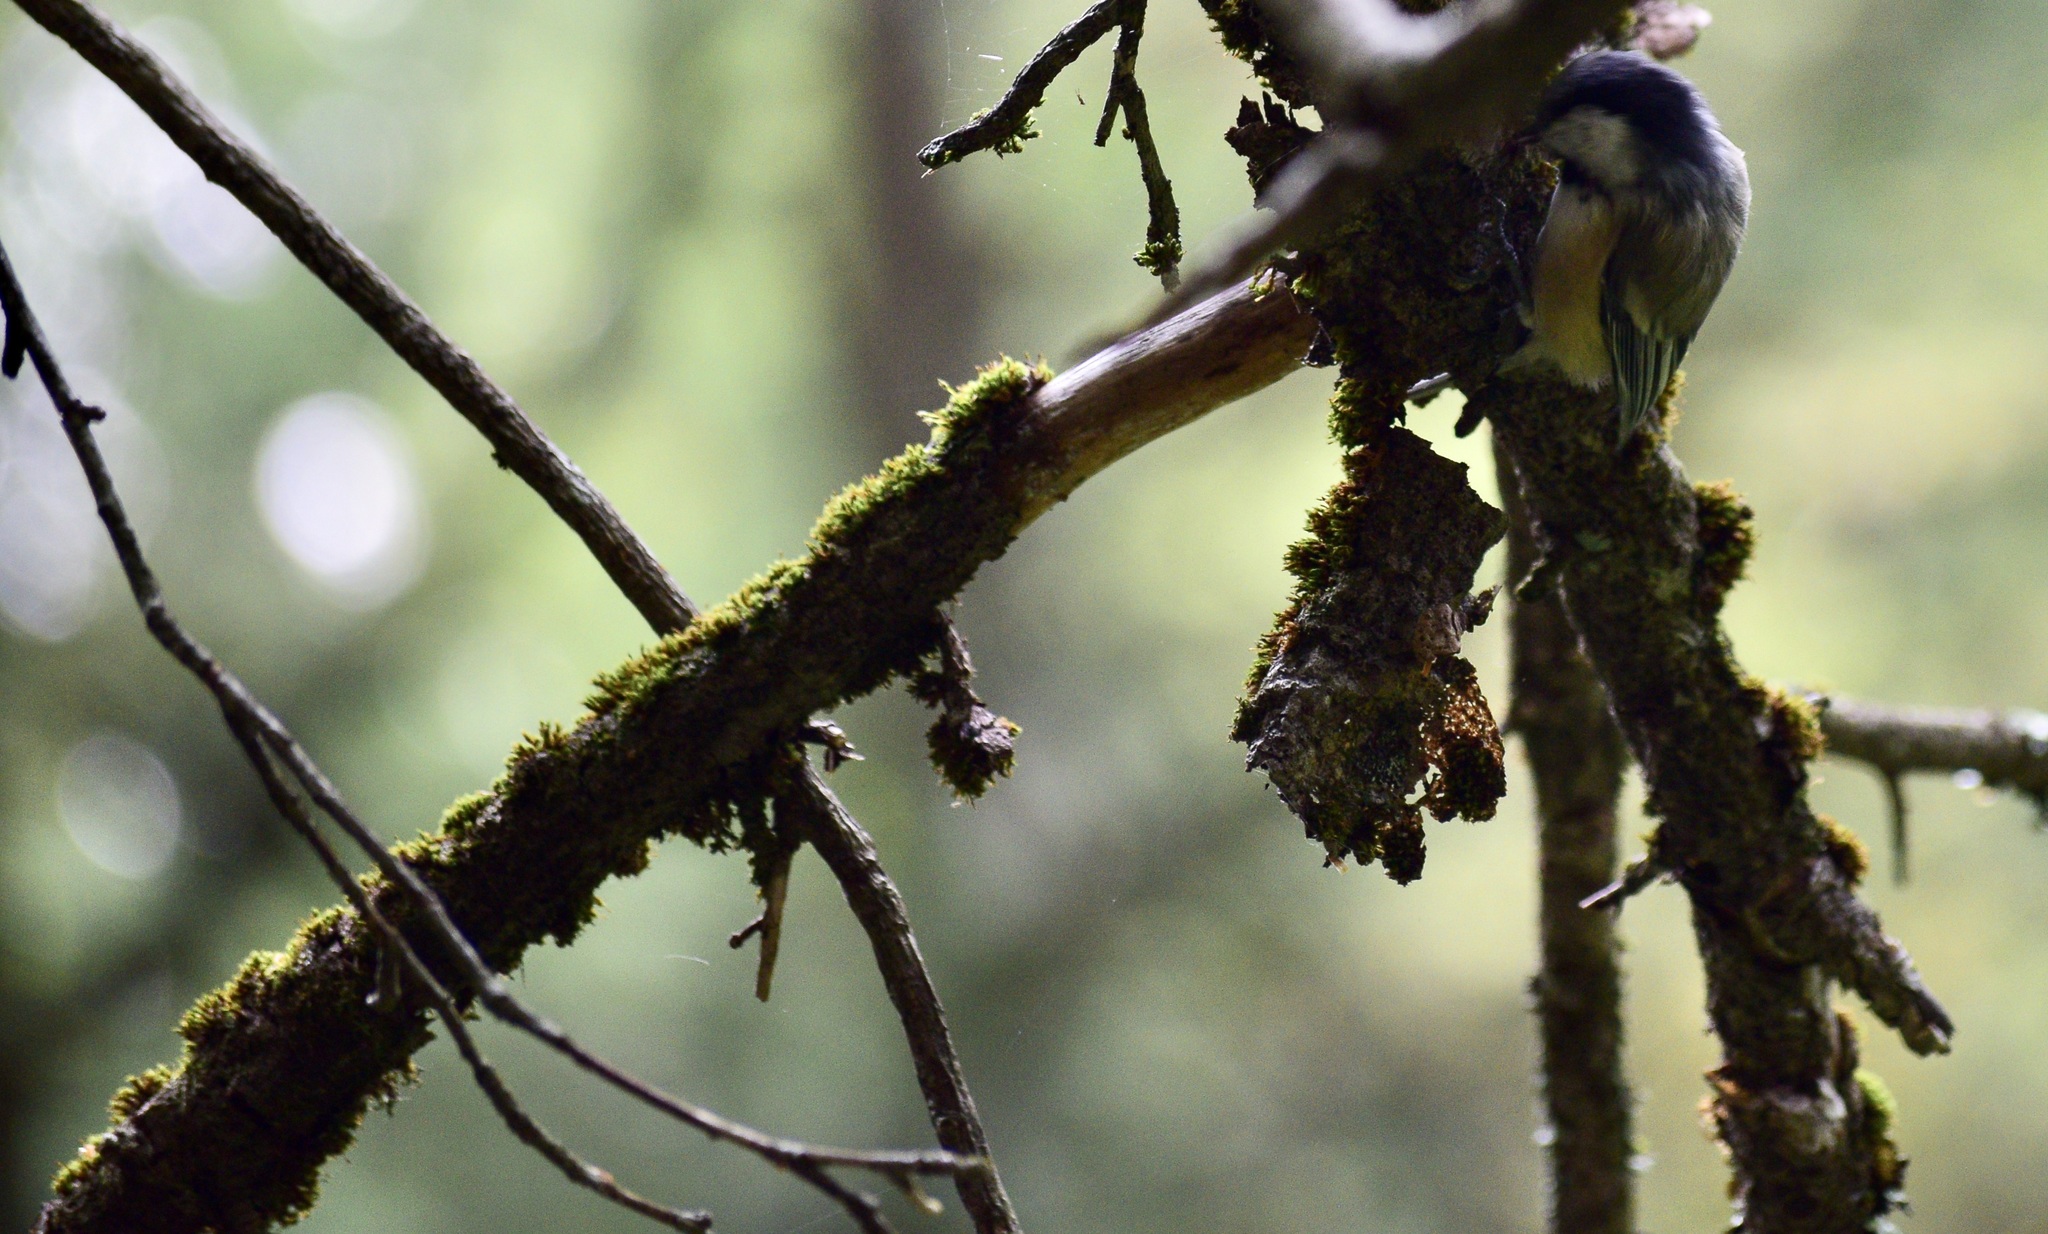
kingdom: Animalia
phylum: Chordata
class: Aves
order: Passeriformes
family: Paridae
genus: Poecile
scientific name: Poecile atricapillus
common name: Black-capped chickadee
